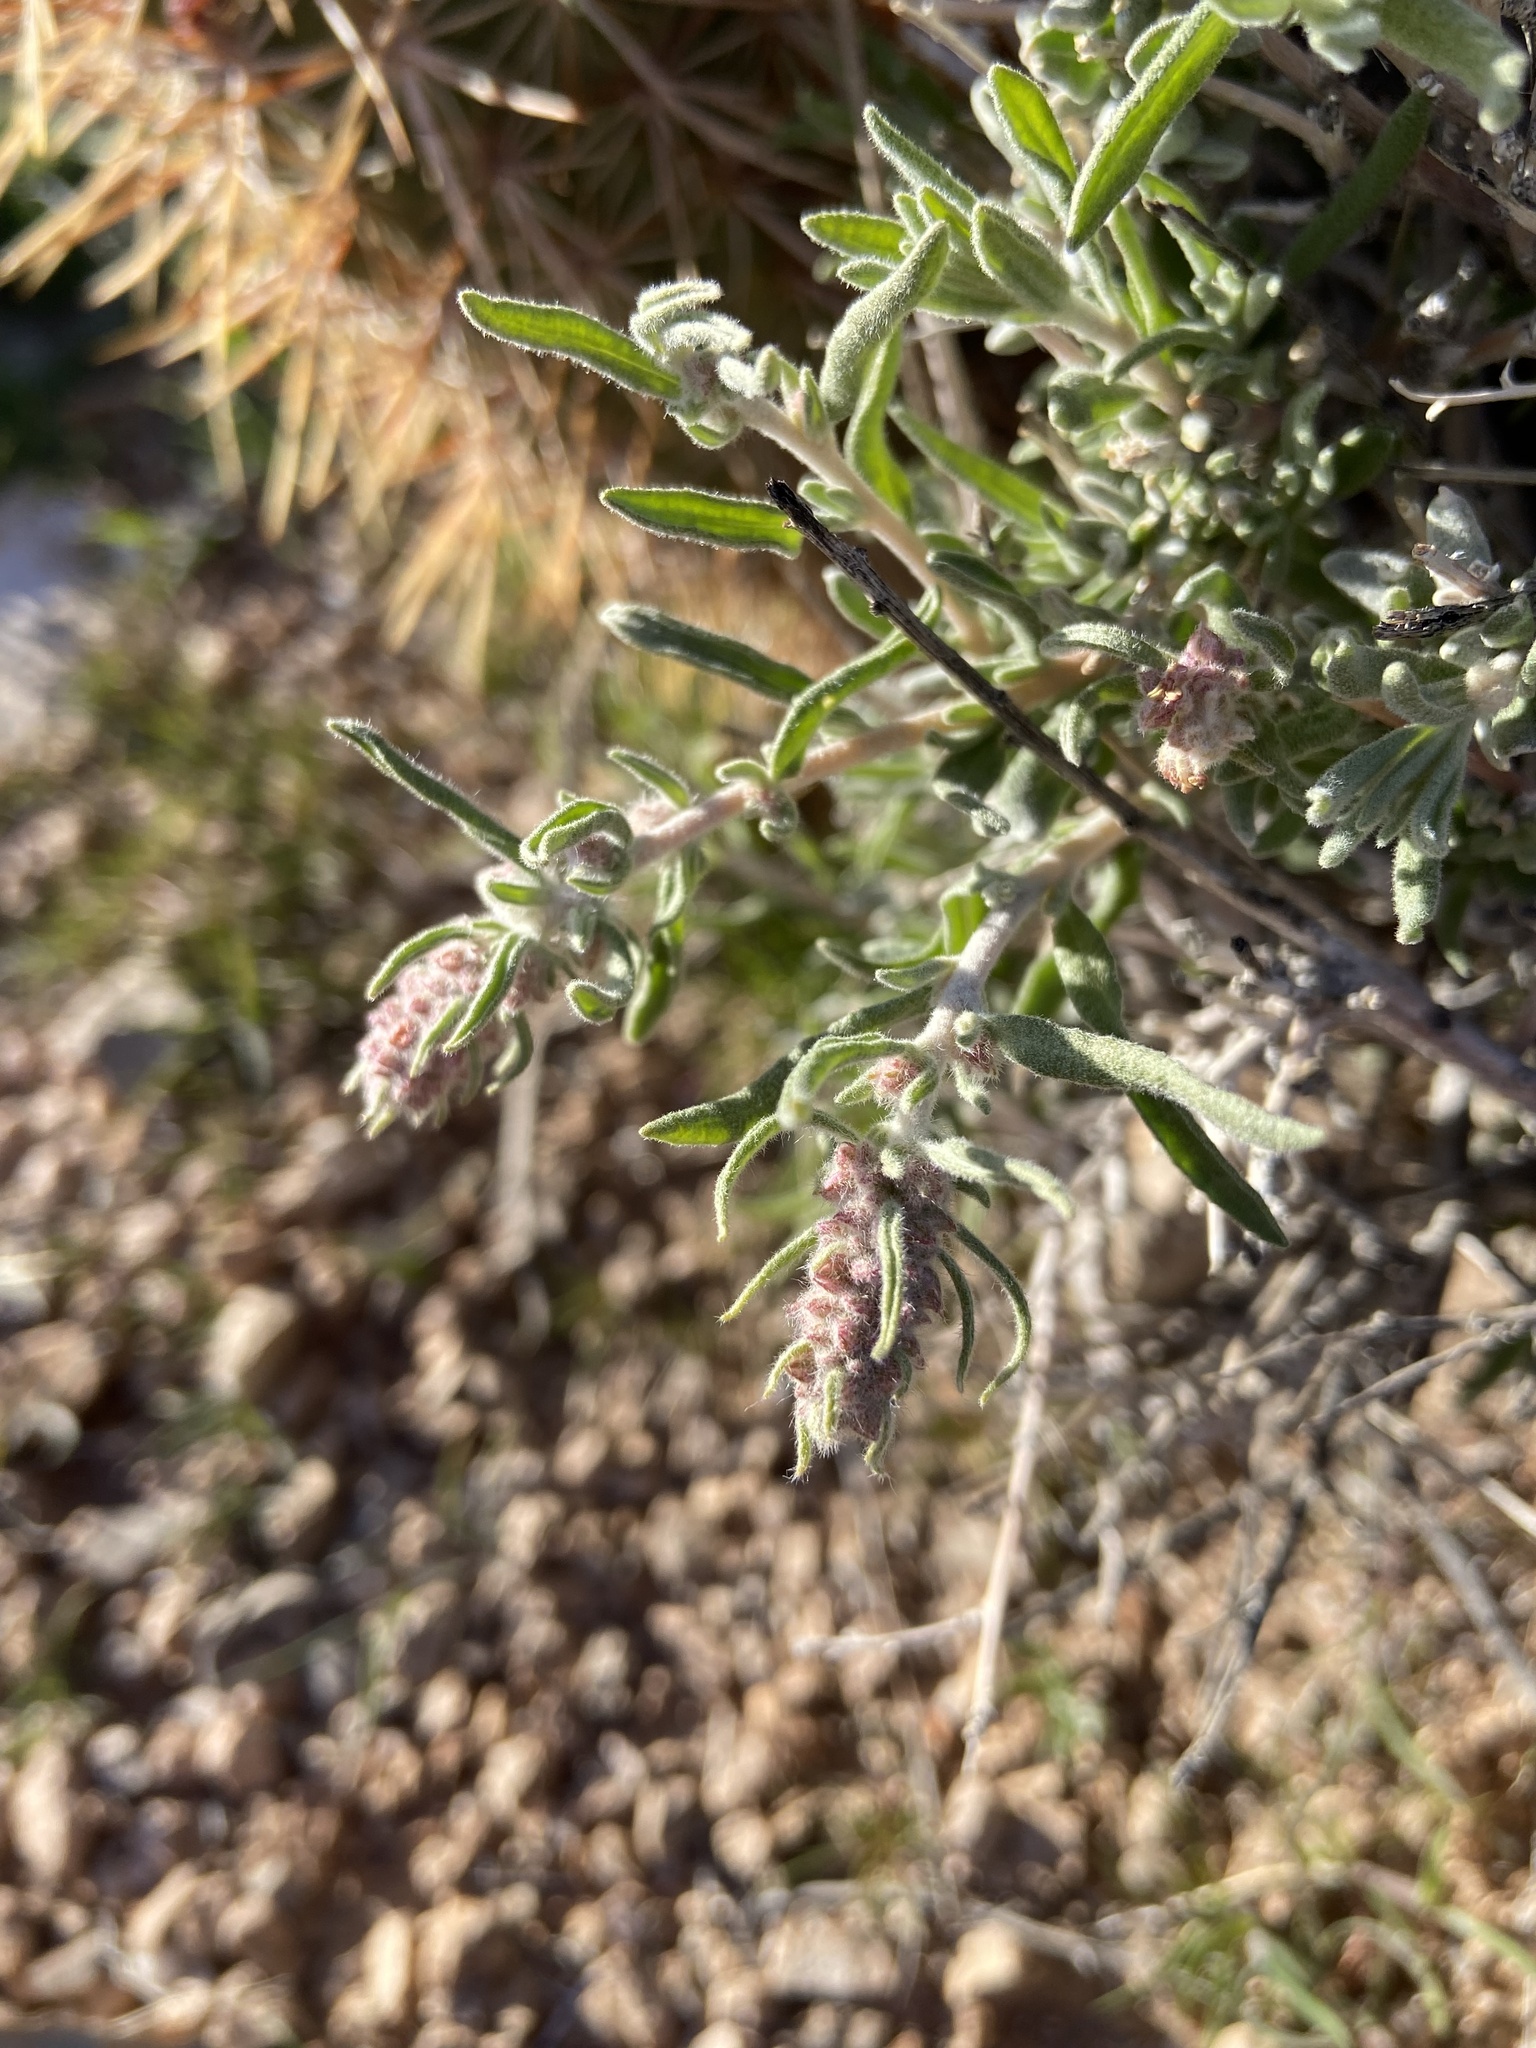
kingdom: Plantae
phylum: Tracheophyta
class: Magnoliopsida
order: Caryophyllales
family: Amaranthaceae
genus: Krascheninnikovia
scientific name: Krascheninnikovia lanata
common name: Winterfat
